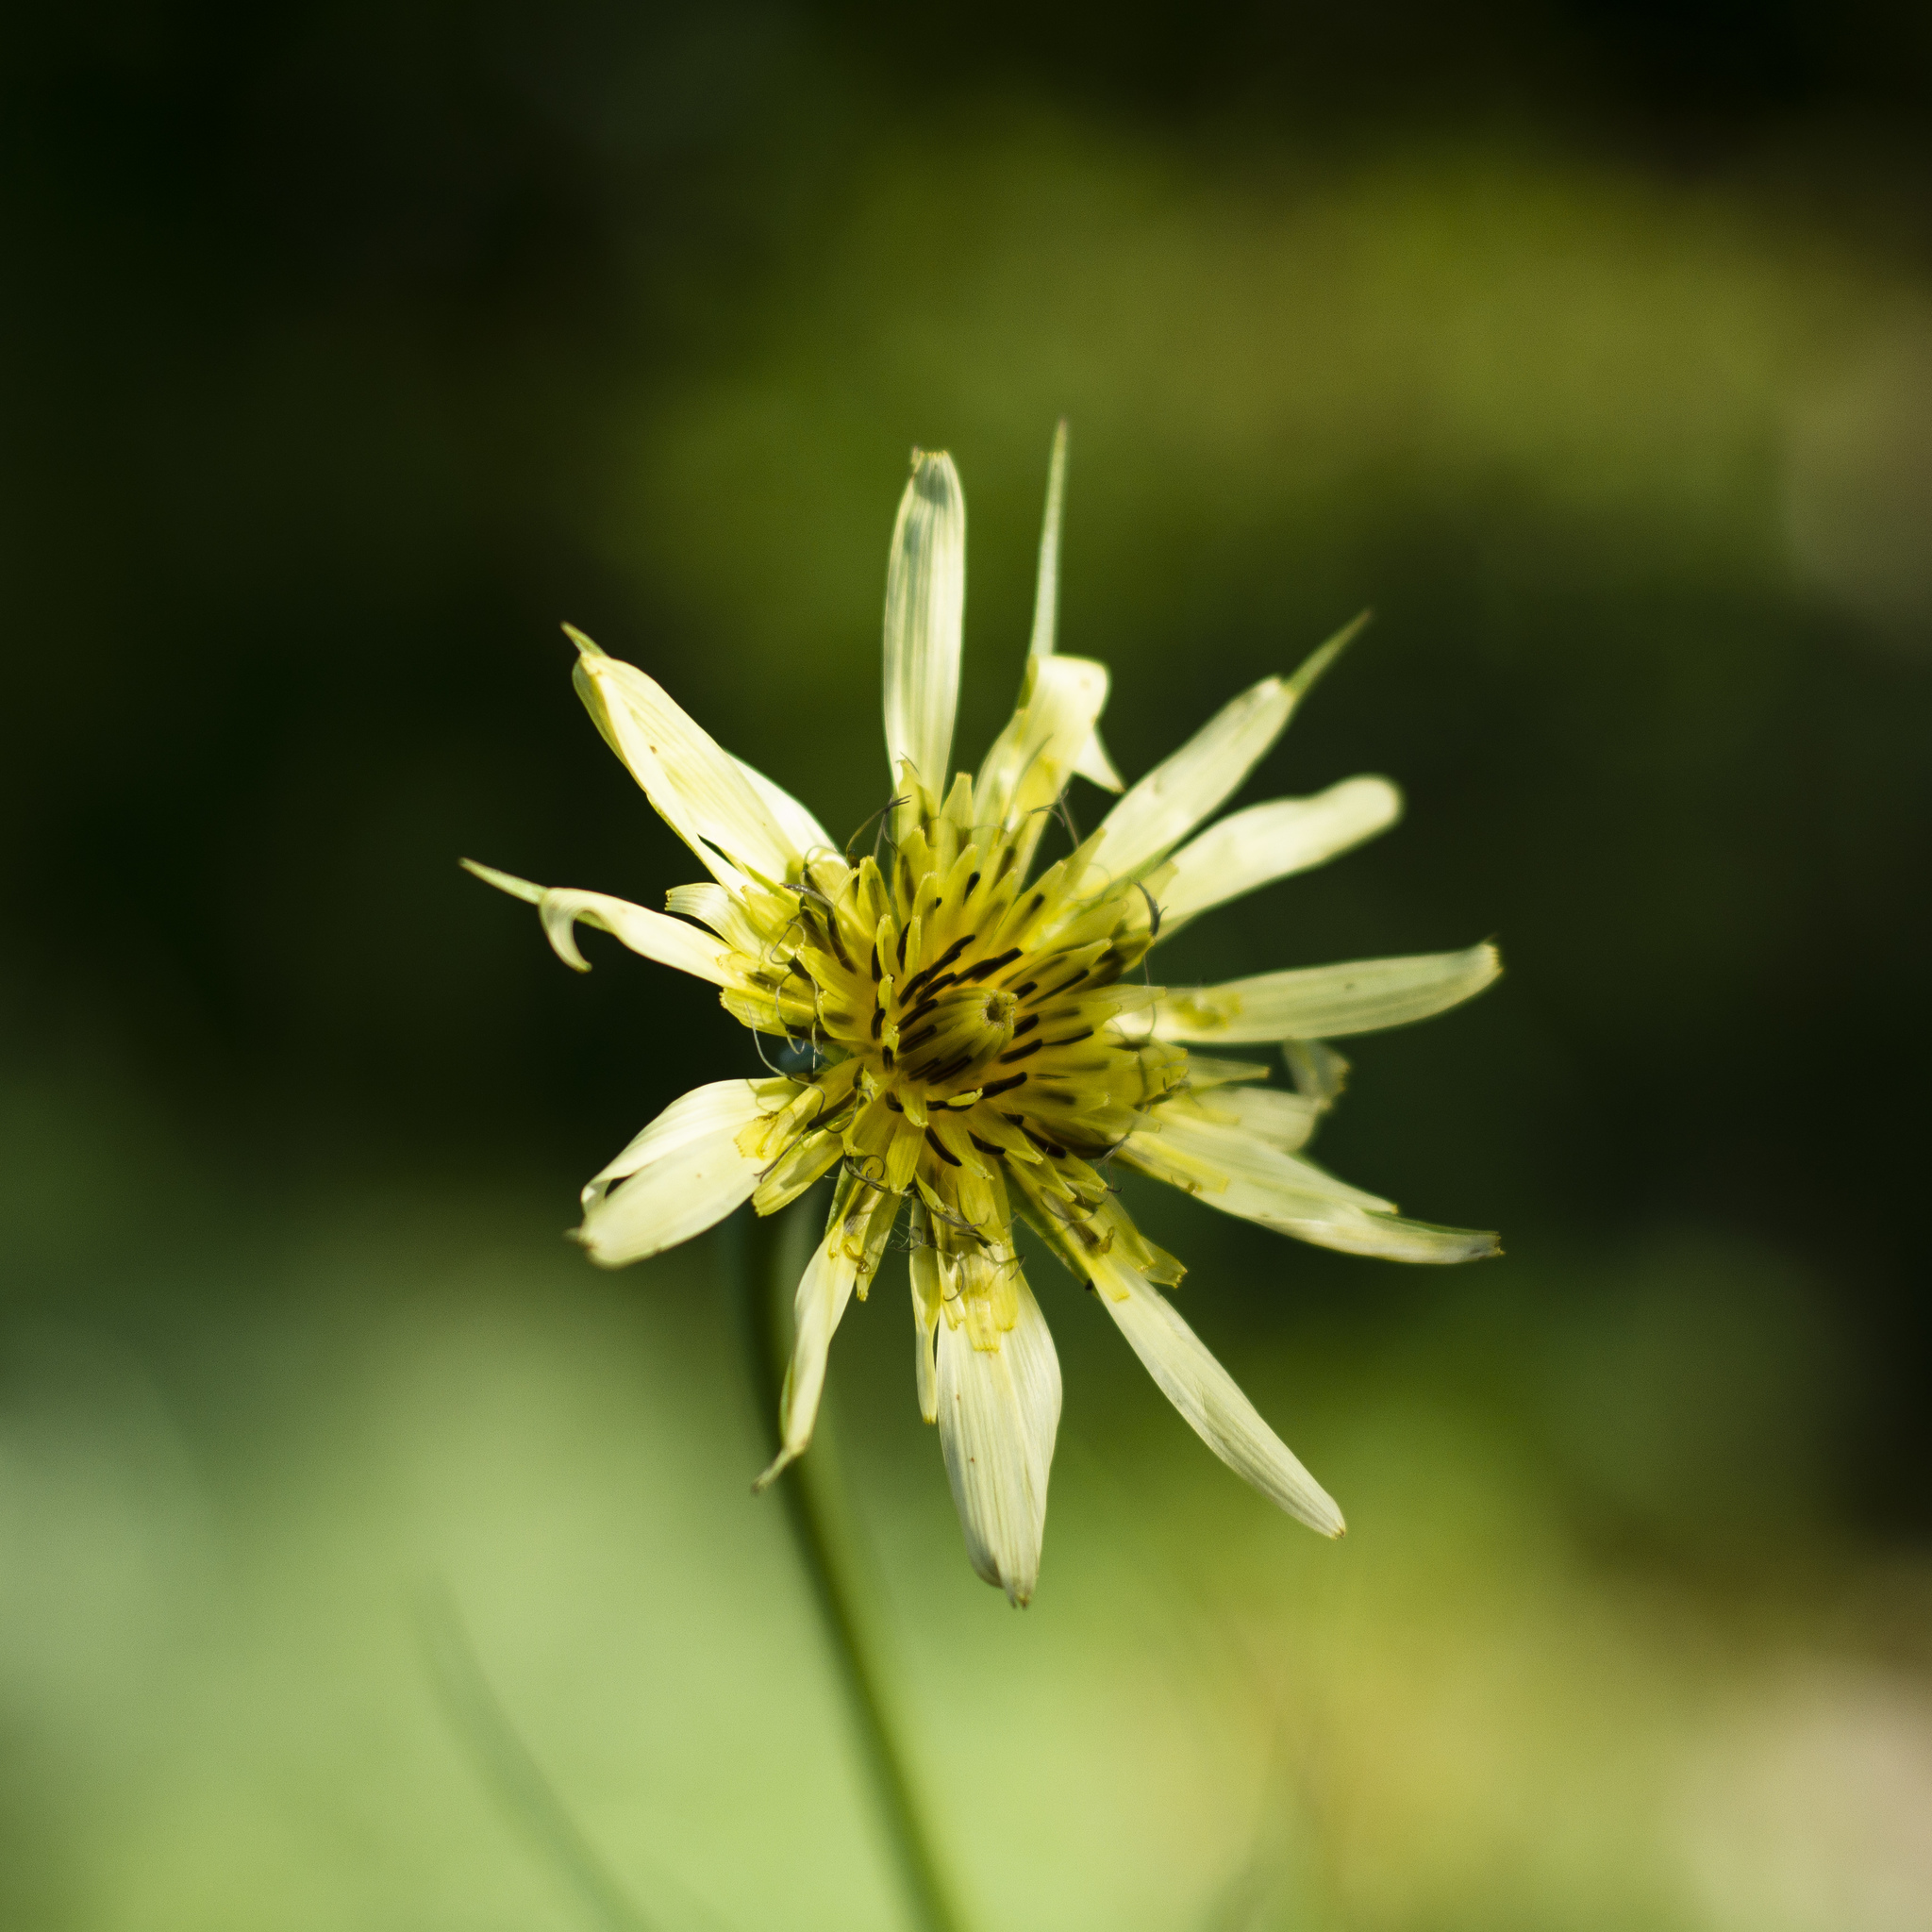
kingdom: Plantae
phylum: Tracheophyta
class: Magnoliopsida
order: Asterales
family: Asteraceae
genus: Tragopogon
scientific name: Tragopogon dubius
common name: Yellow salsify
